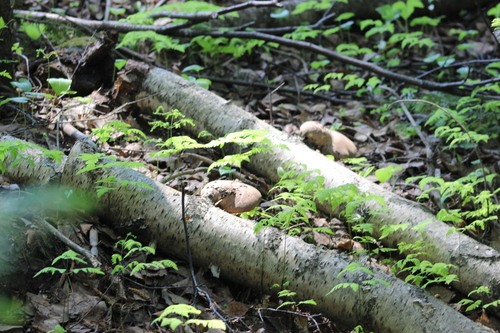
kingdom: Fungi
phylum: Basidiomycota
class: Agaricomycetes
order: Polyporales
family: Fomitopsidaceae
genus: Fomitopsis
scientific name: Fomitopsis betulina
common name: Birch polypore
